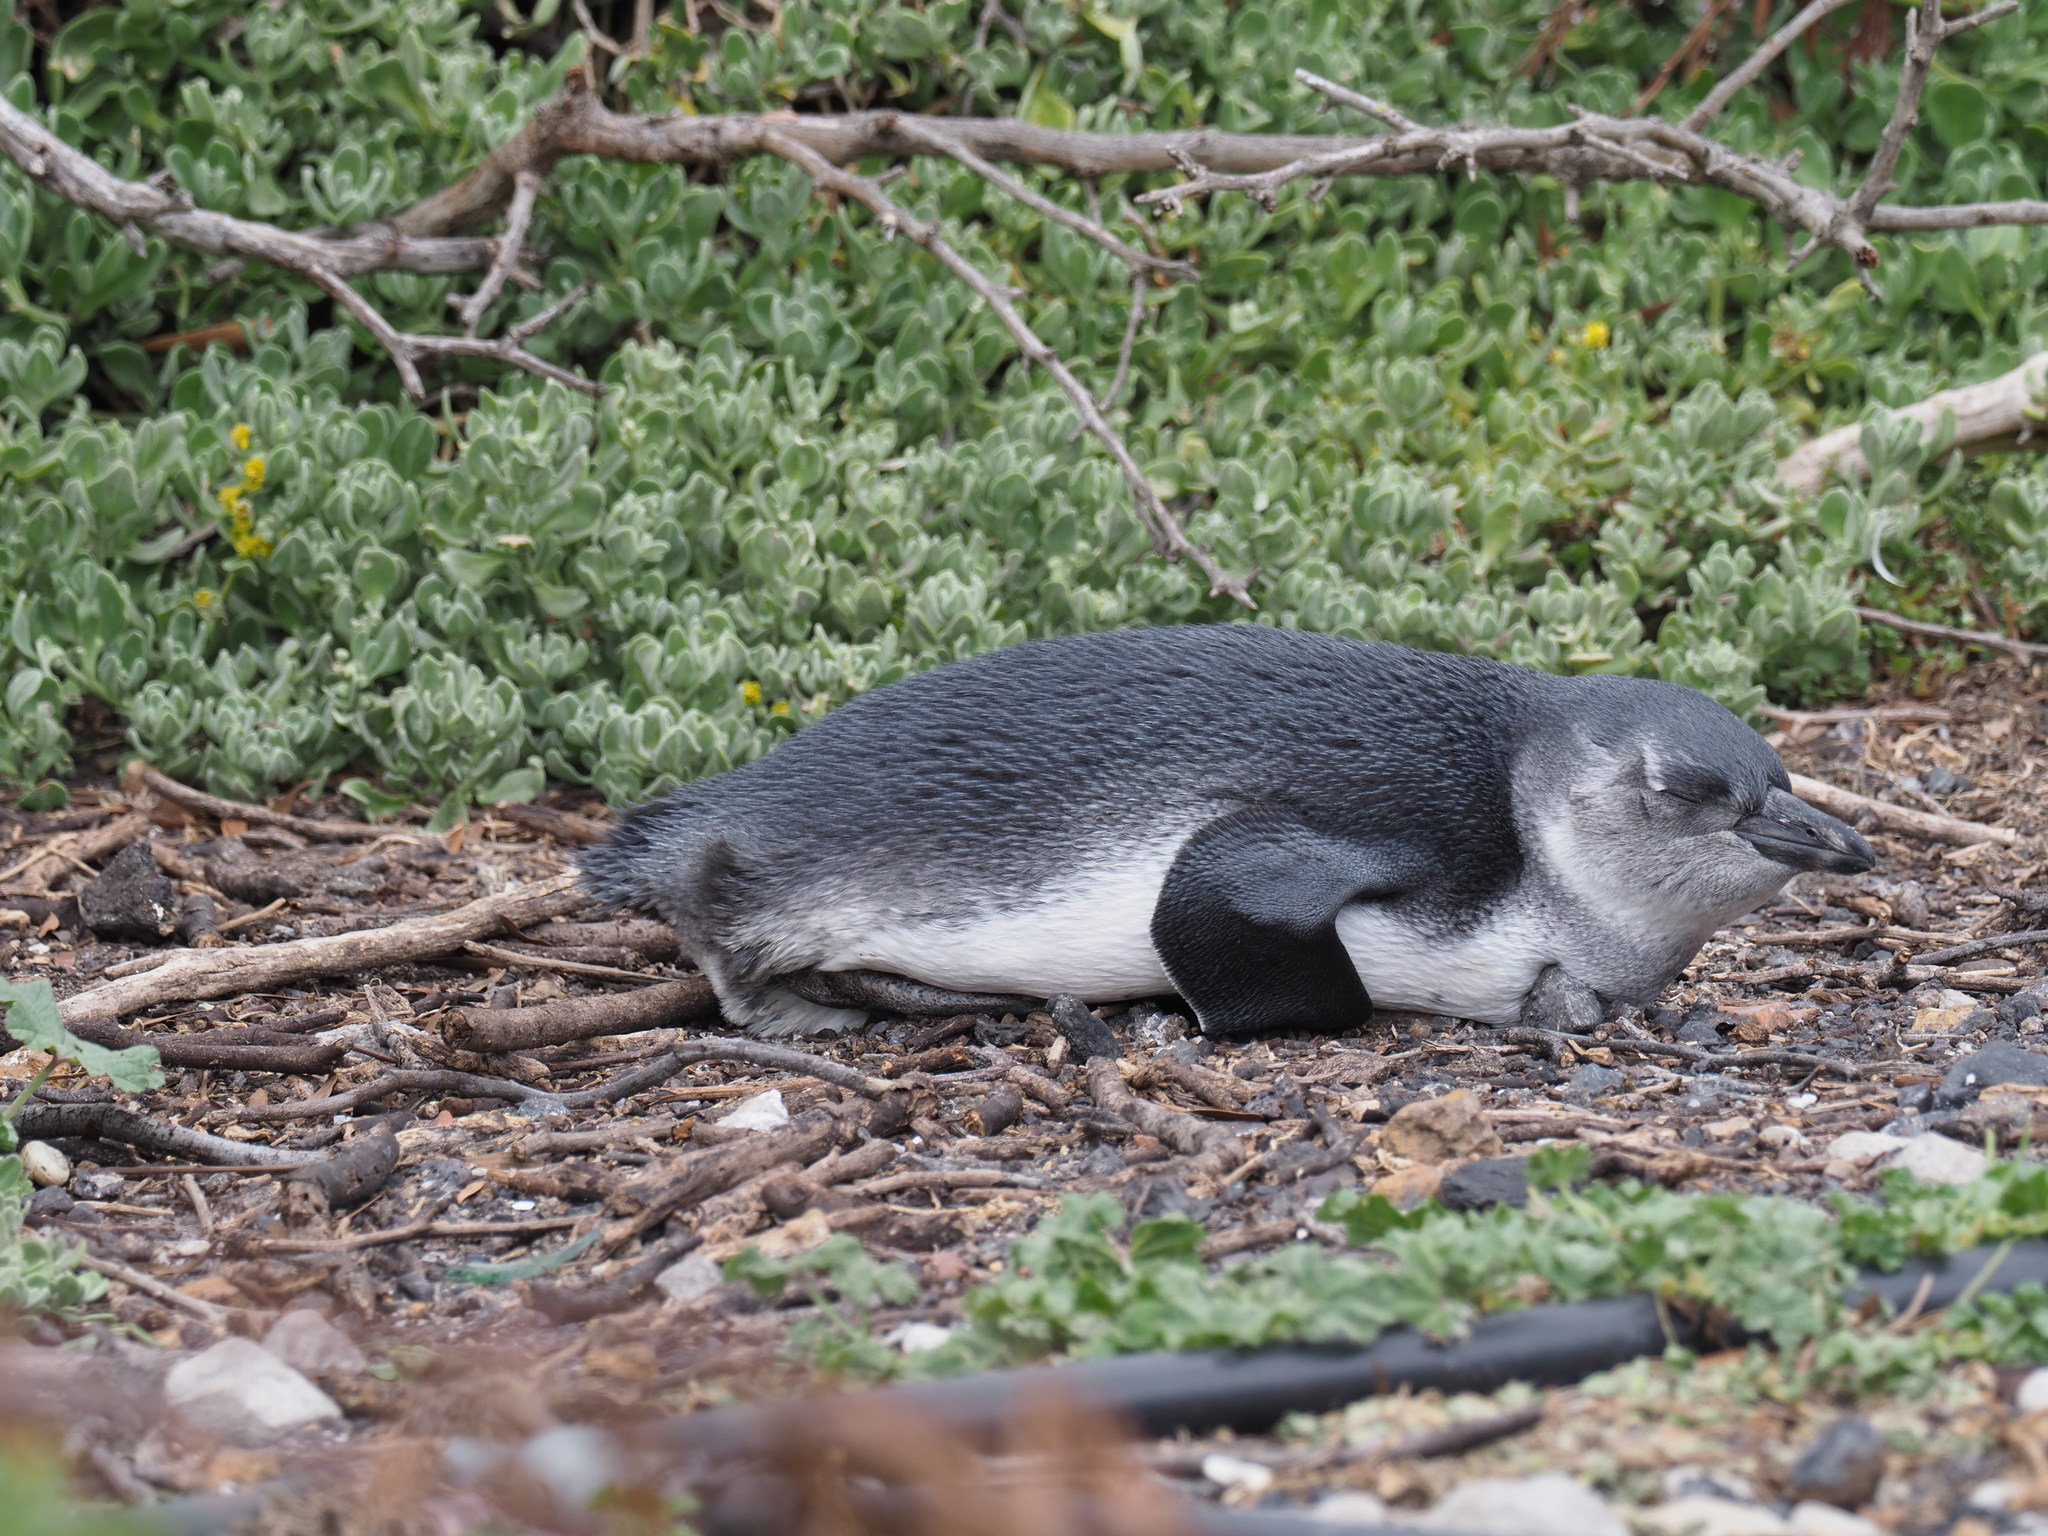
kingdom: Animalia
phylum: Chordata
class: Aves
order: Sphenisciformes
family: Spheniscidae
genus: Spheniscus
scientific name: Spheniscus demersus
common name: African penguin
